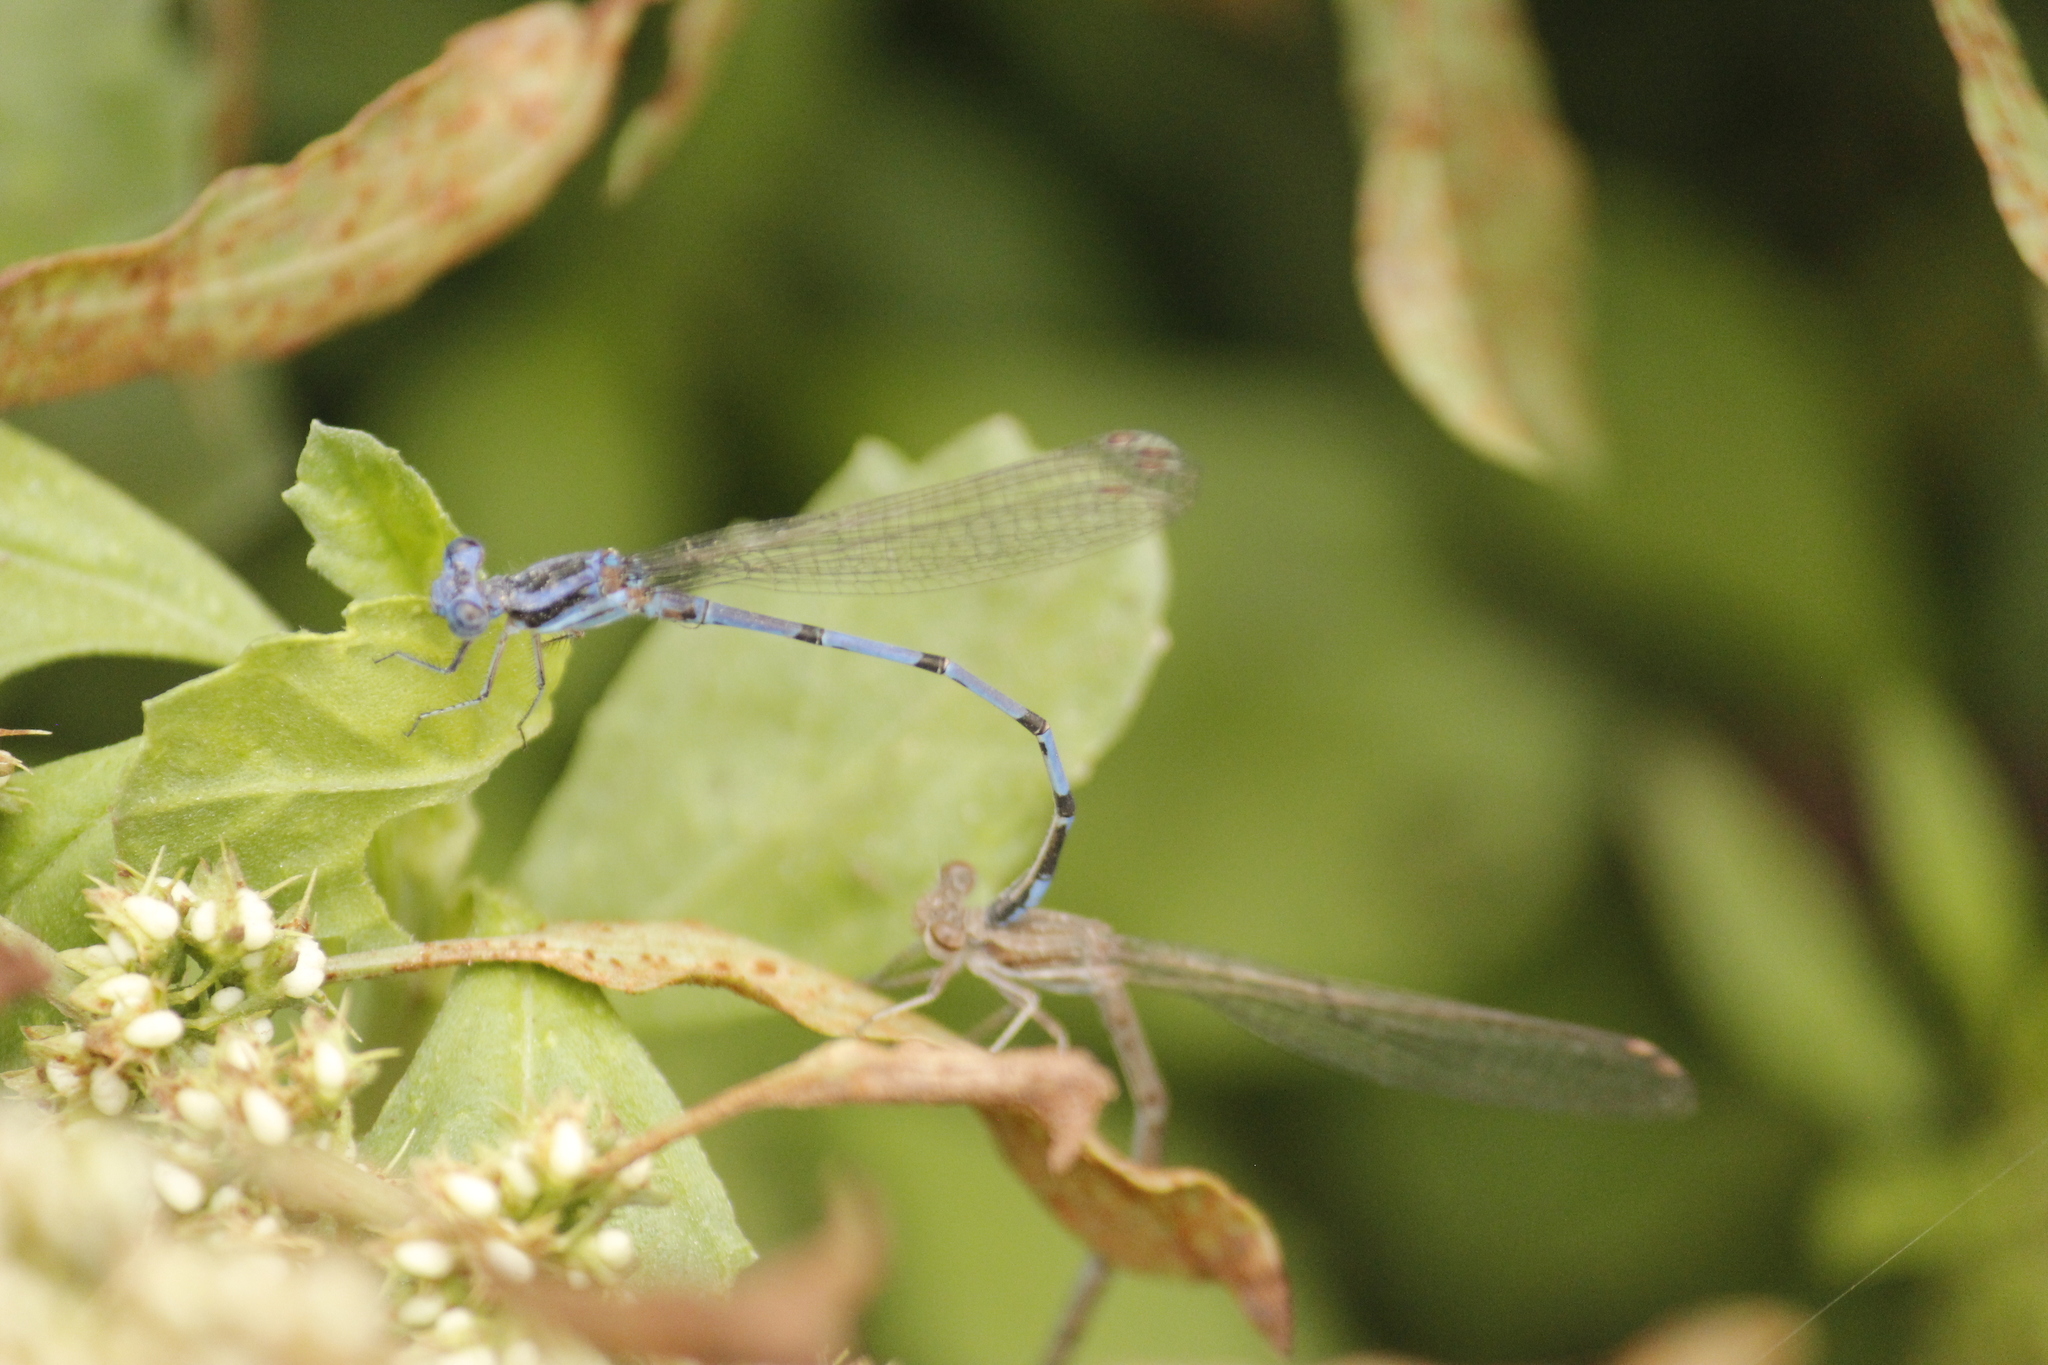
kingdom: Animalia
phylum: Arthropoda
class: Insecta
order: Odonata
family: Coenagrionidae
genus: Argia
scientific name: Argia inculta
